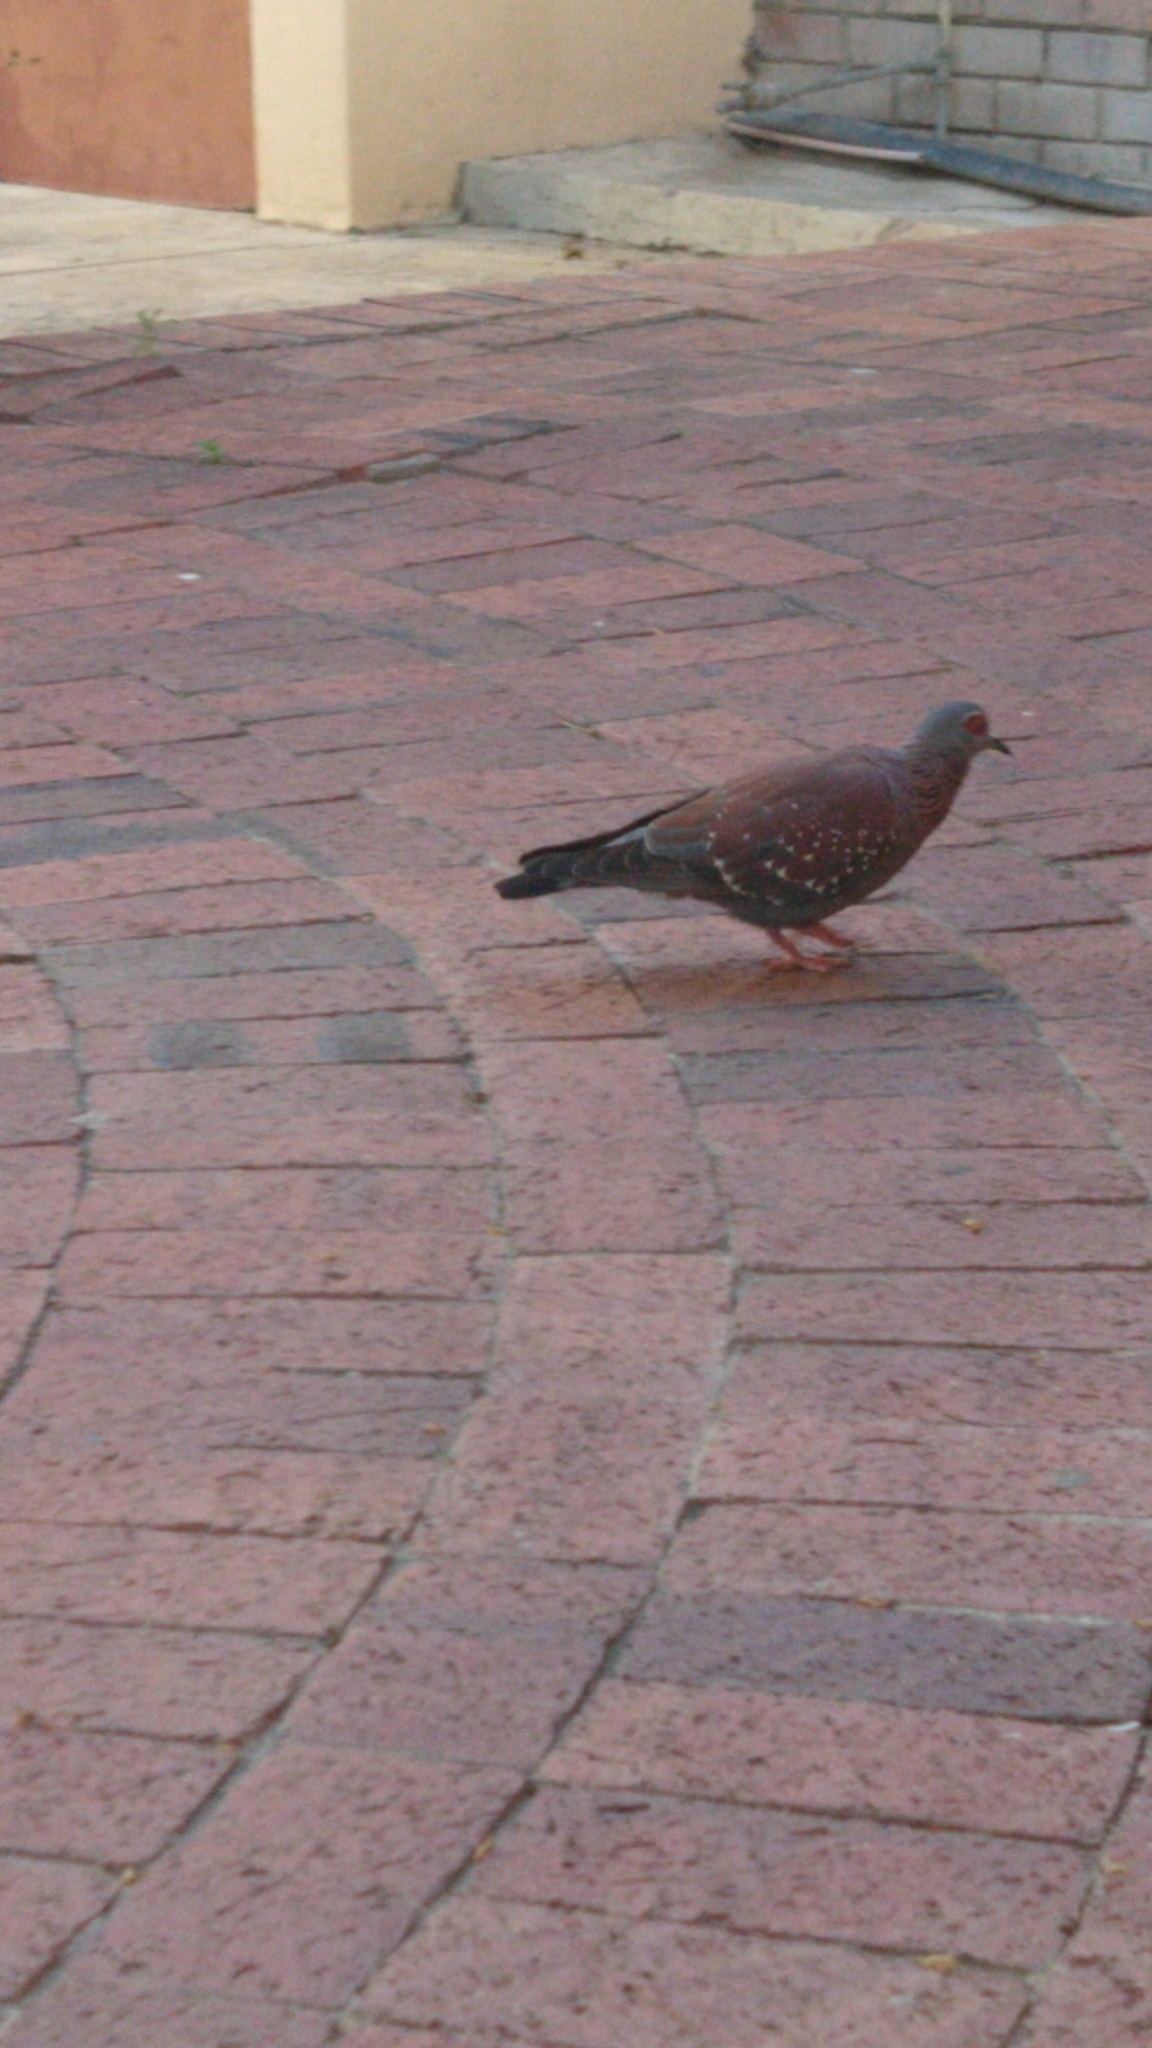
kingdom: Animalia
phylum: Chordata
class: Aves
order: Columbiformes
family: Columbidae
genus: Columba
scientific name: Columba guinea
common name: Speckled pigeon
